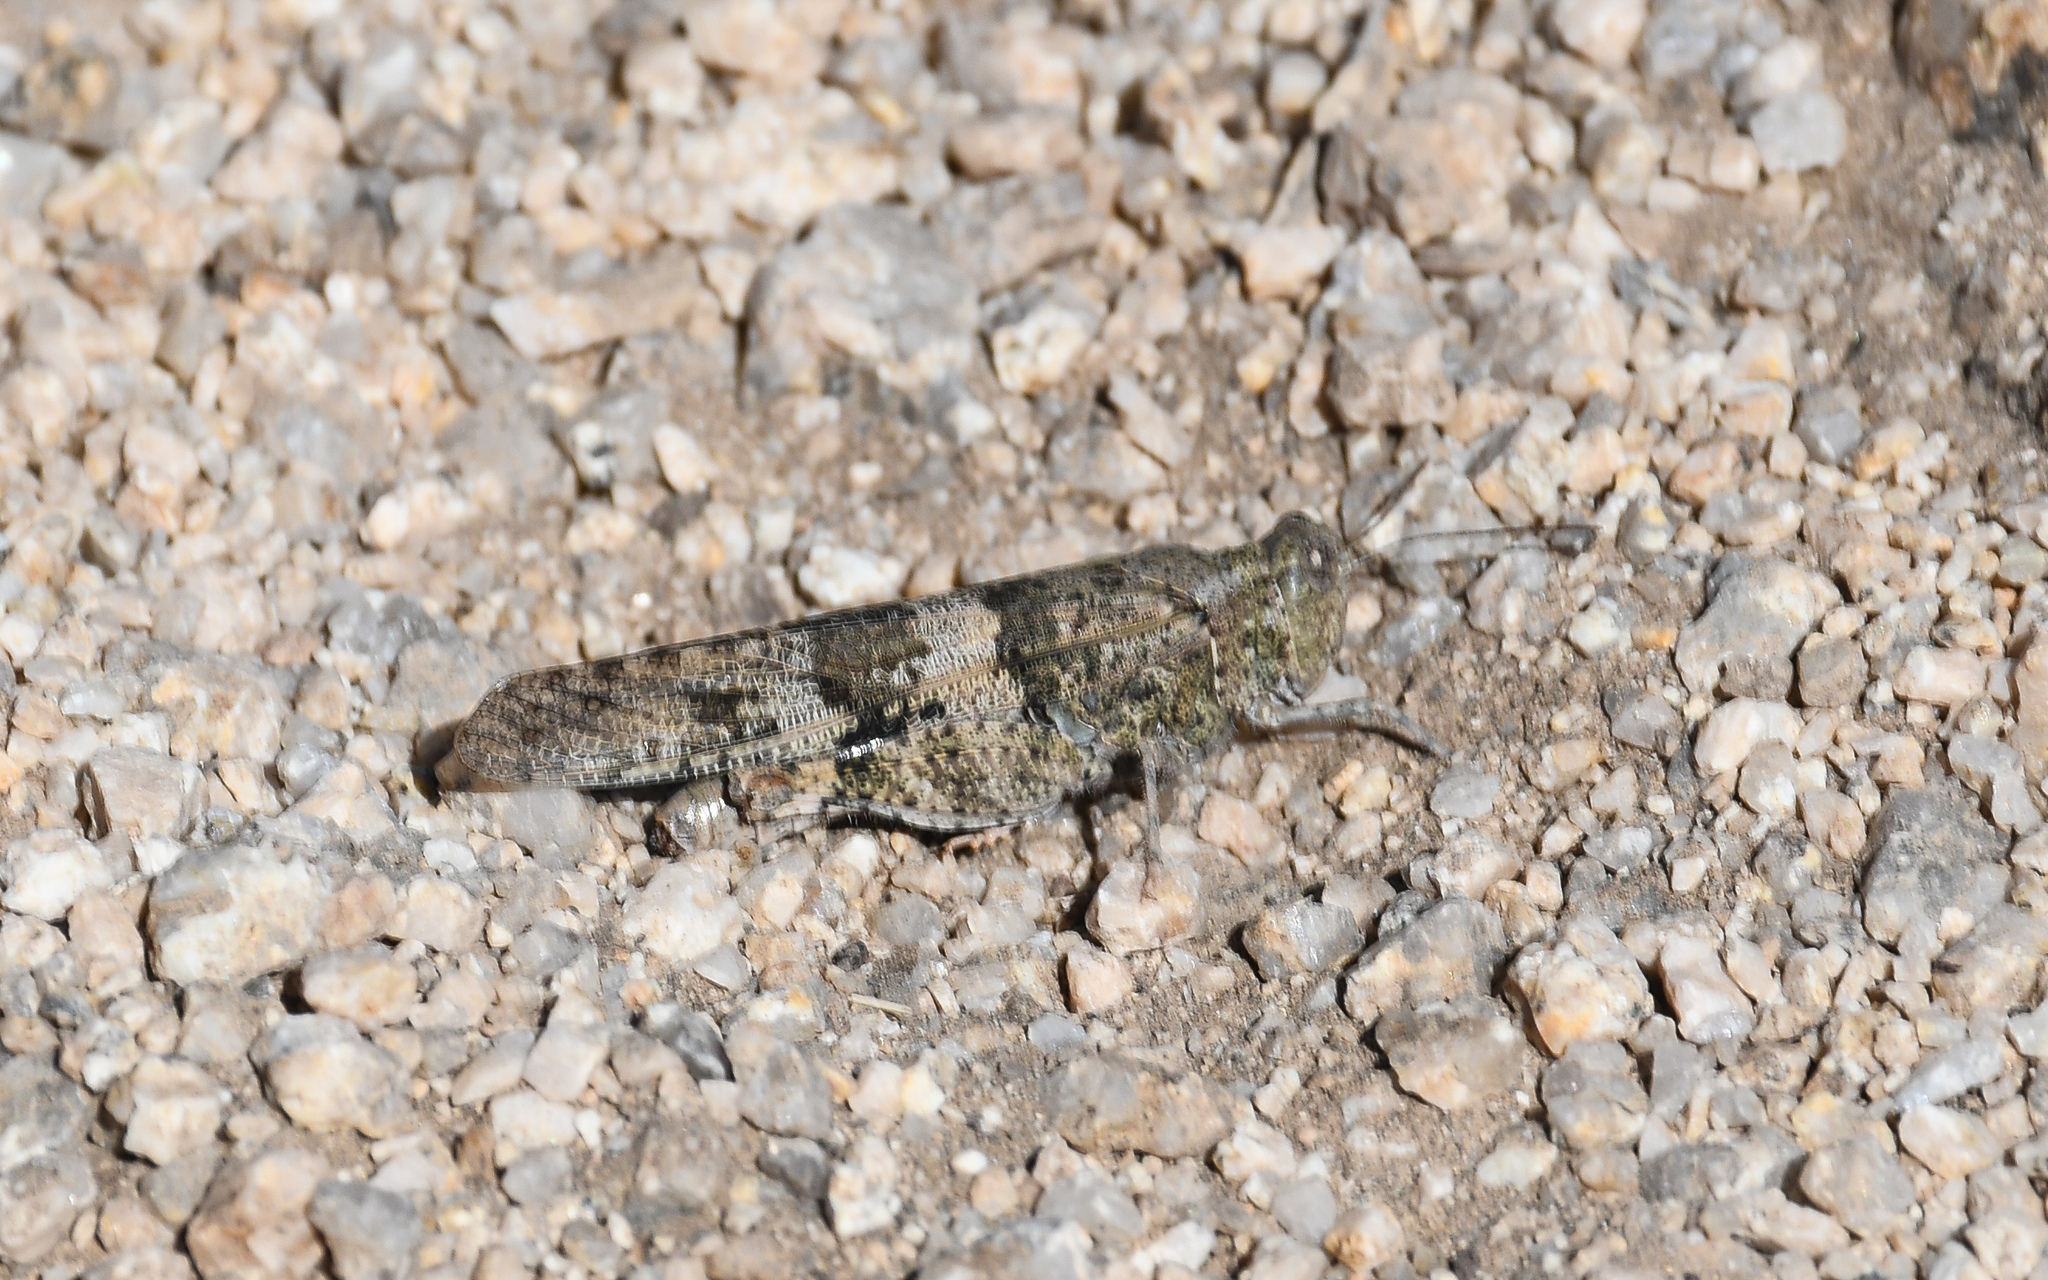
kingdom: Animalia
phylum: Arthropoda
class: Insecta
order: Orthoptera
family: Acrididae
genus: Trimerotropis
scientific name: Trimerotropis pallidipennis
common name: Pallid-winged grasshopper
